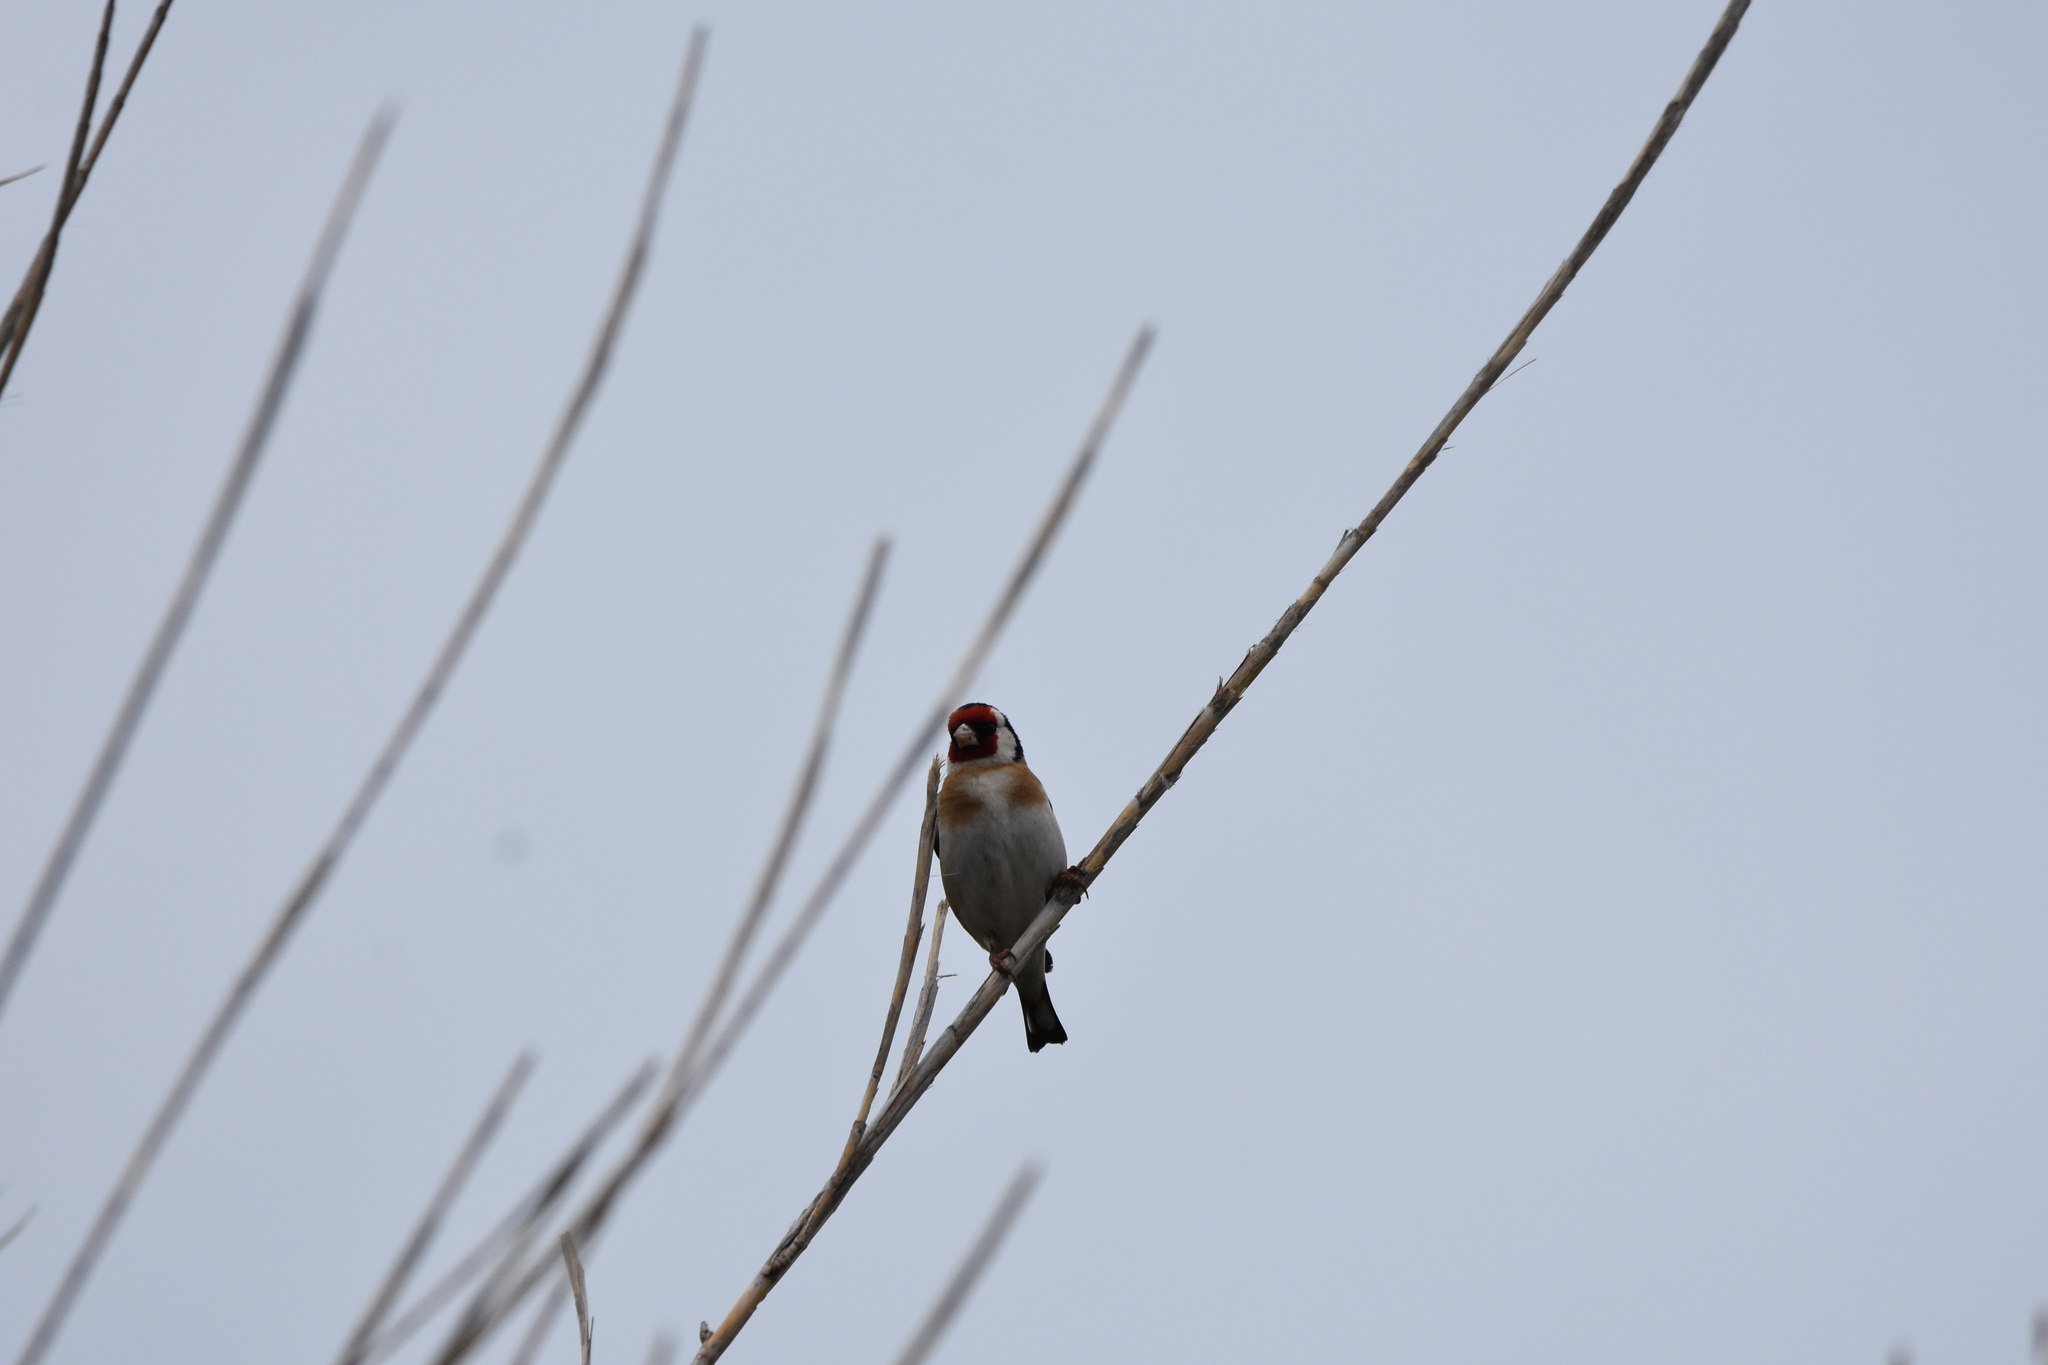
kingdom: Animalia
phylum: Chordata
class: Aves
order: Passeriformes
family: Fringillidae
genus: Carduelis
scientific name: Carduelis carduelis
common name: European goldfinch
